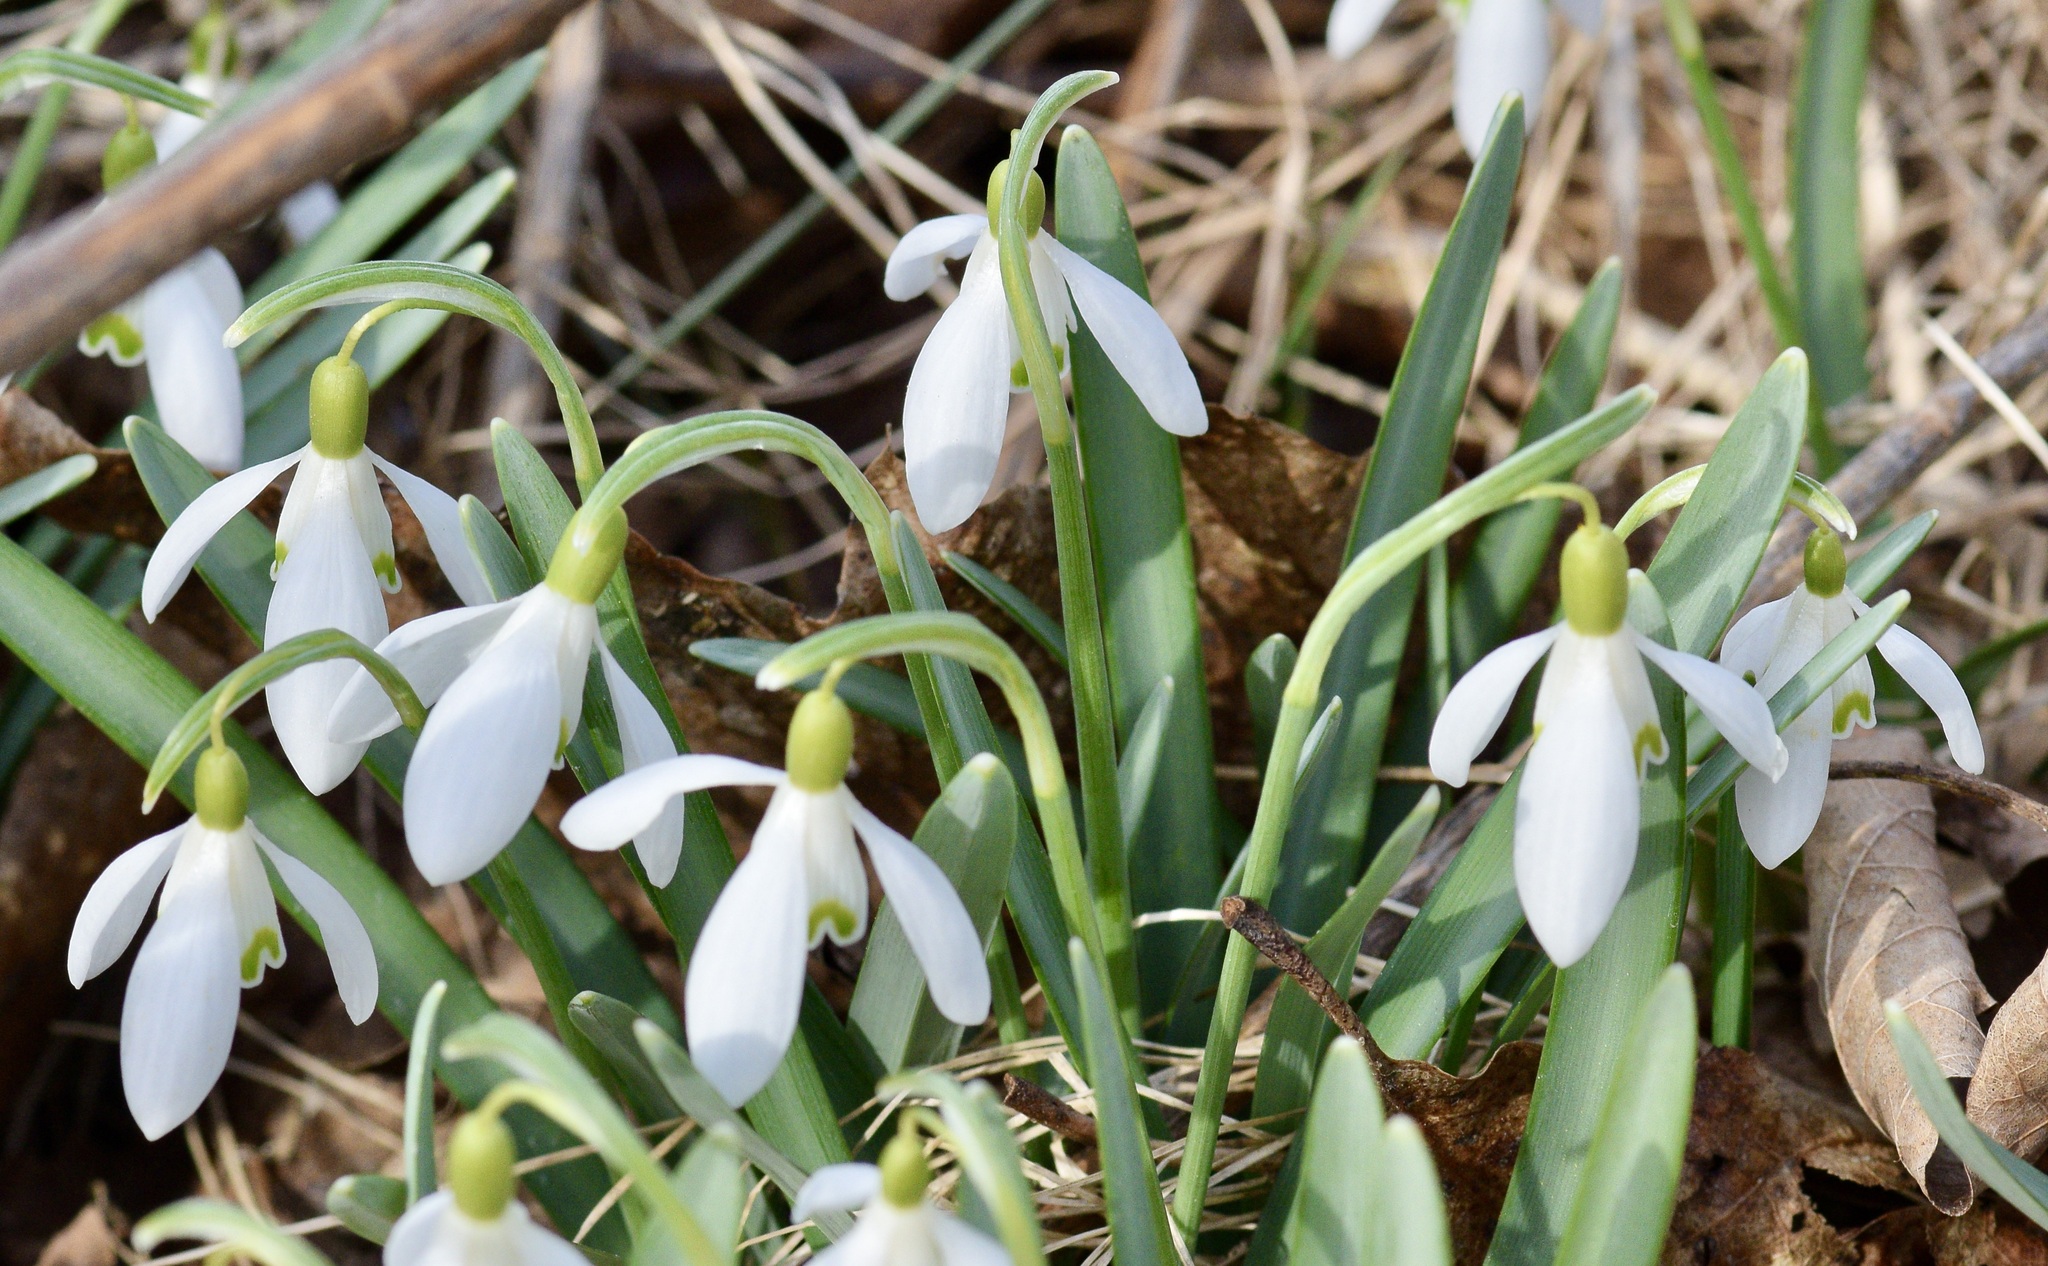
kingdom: Plantae
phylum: Tracheophyta
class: Liliopsida
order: Asparagales
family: Amaryllidaceae
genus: Galanthus
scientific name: Galanthus nivalis
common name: Snowdrop
